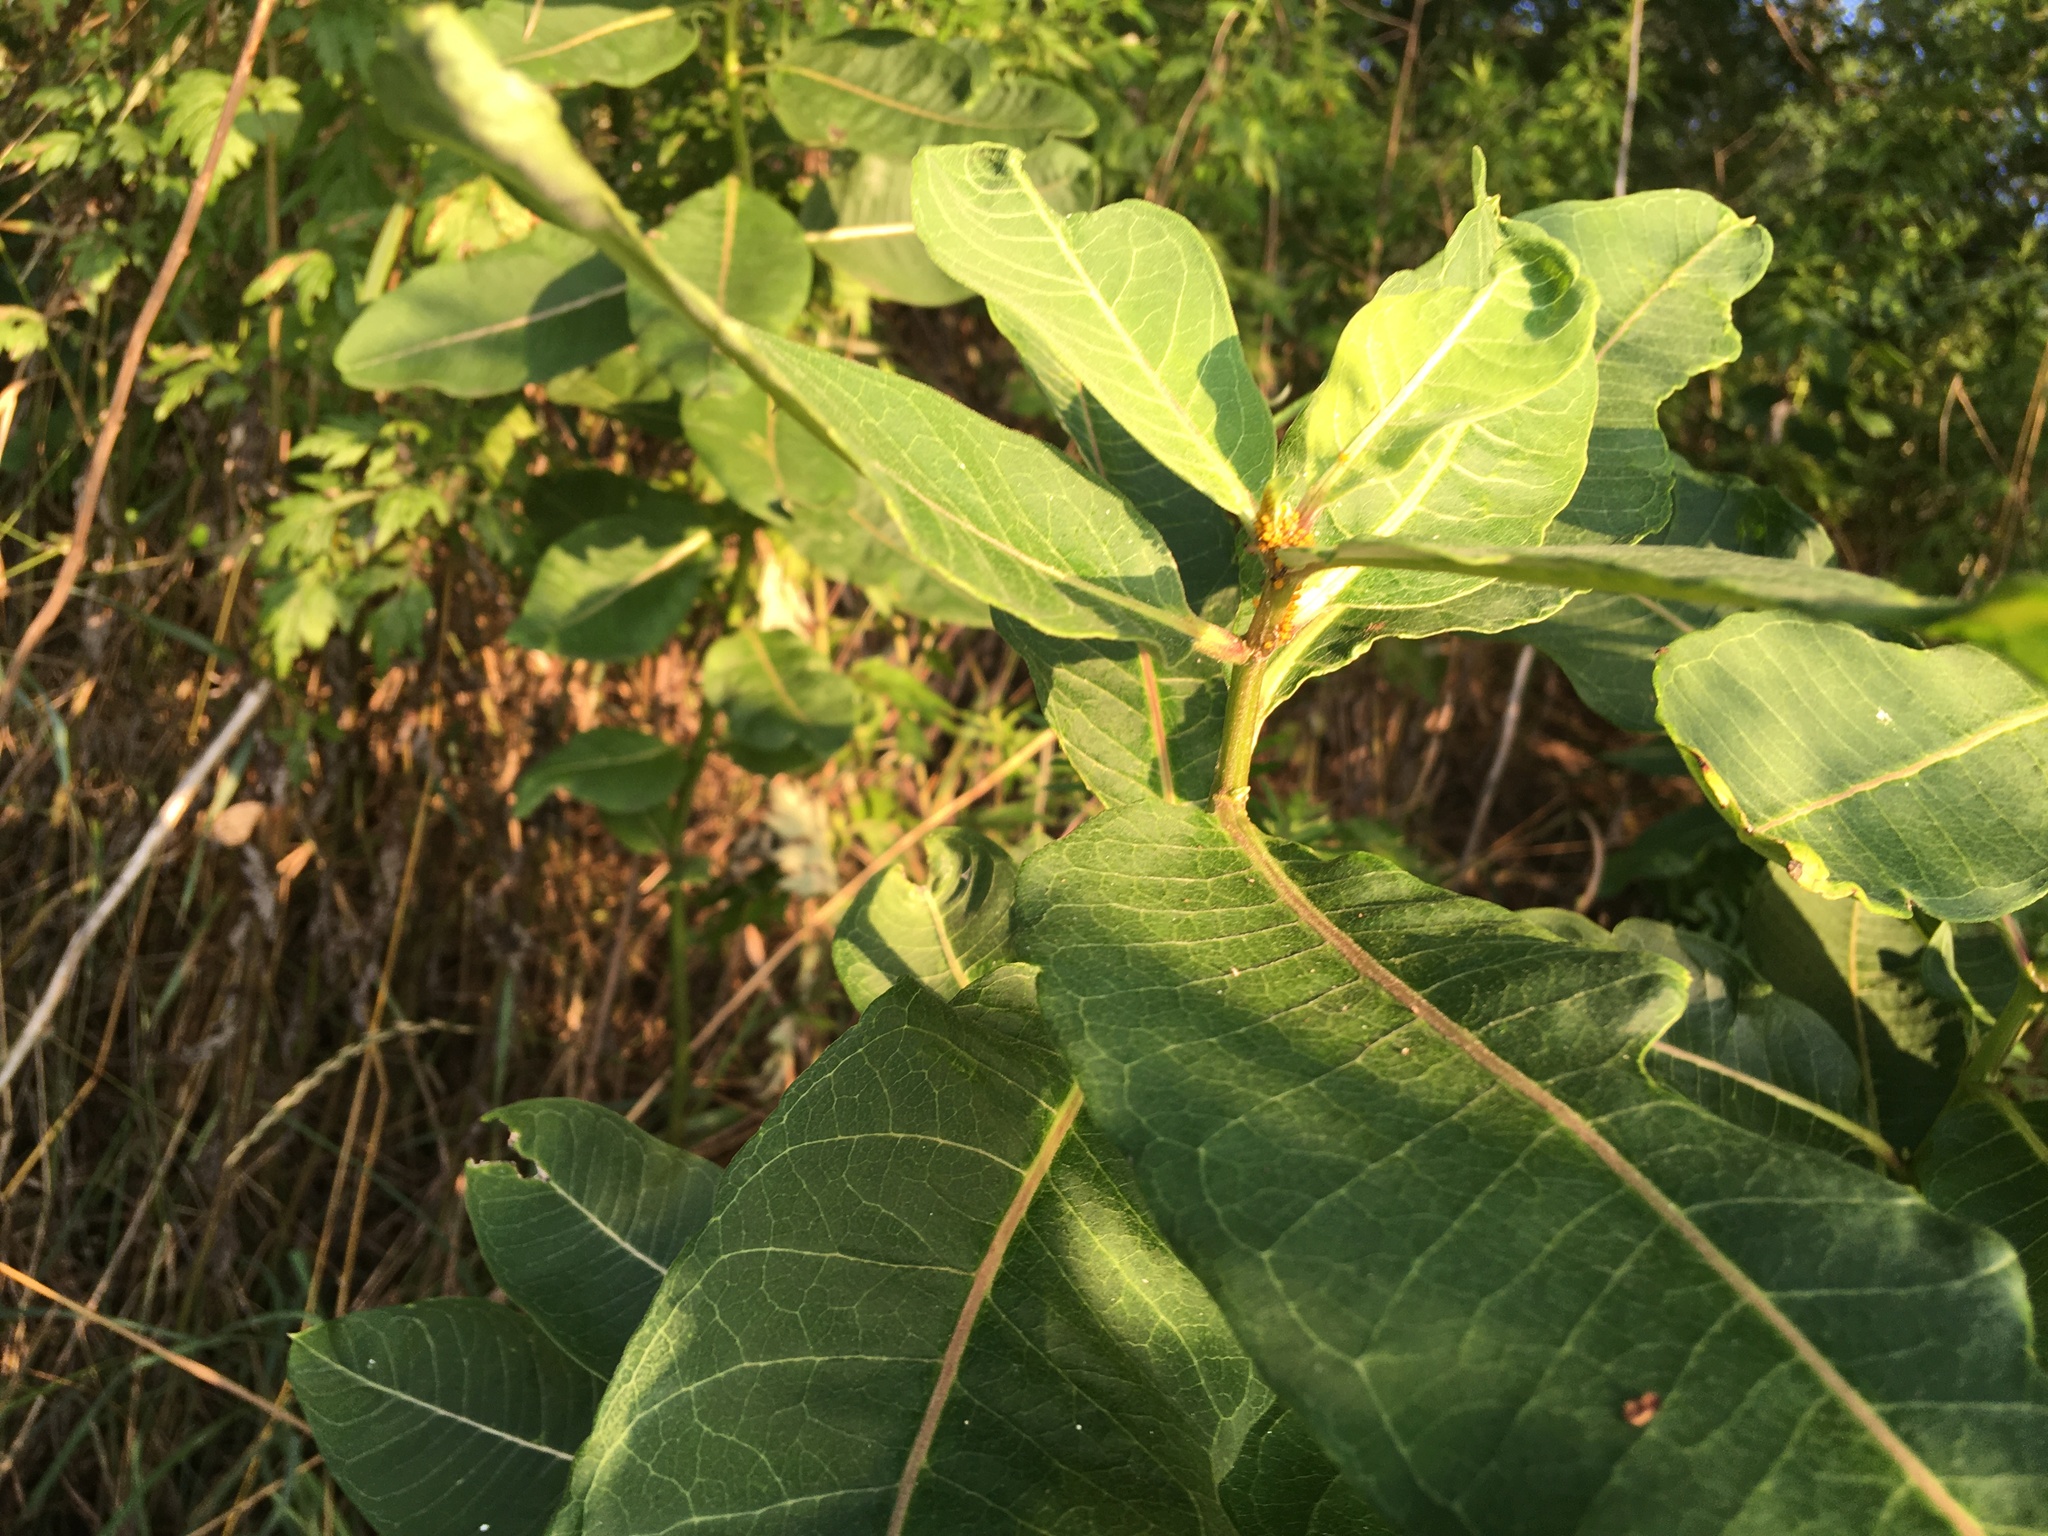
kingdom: Plantae
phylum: Tracheophyta
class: Magnoliopsida
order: Gentianales
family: Apocynaceae
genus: Asclepias
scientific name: Asclepias syriaca
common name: Common milkweed
